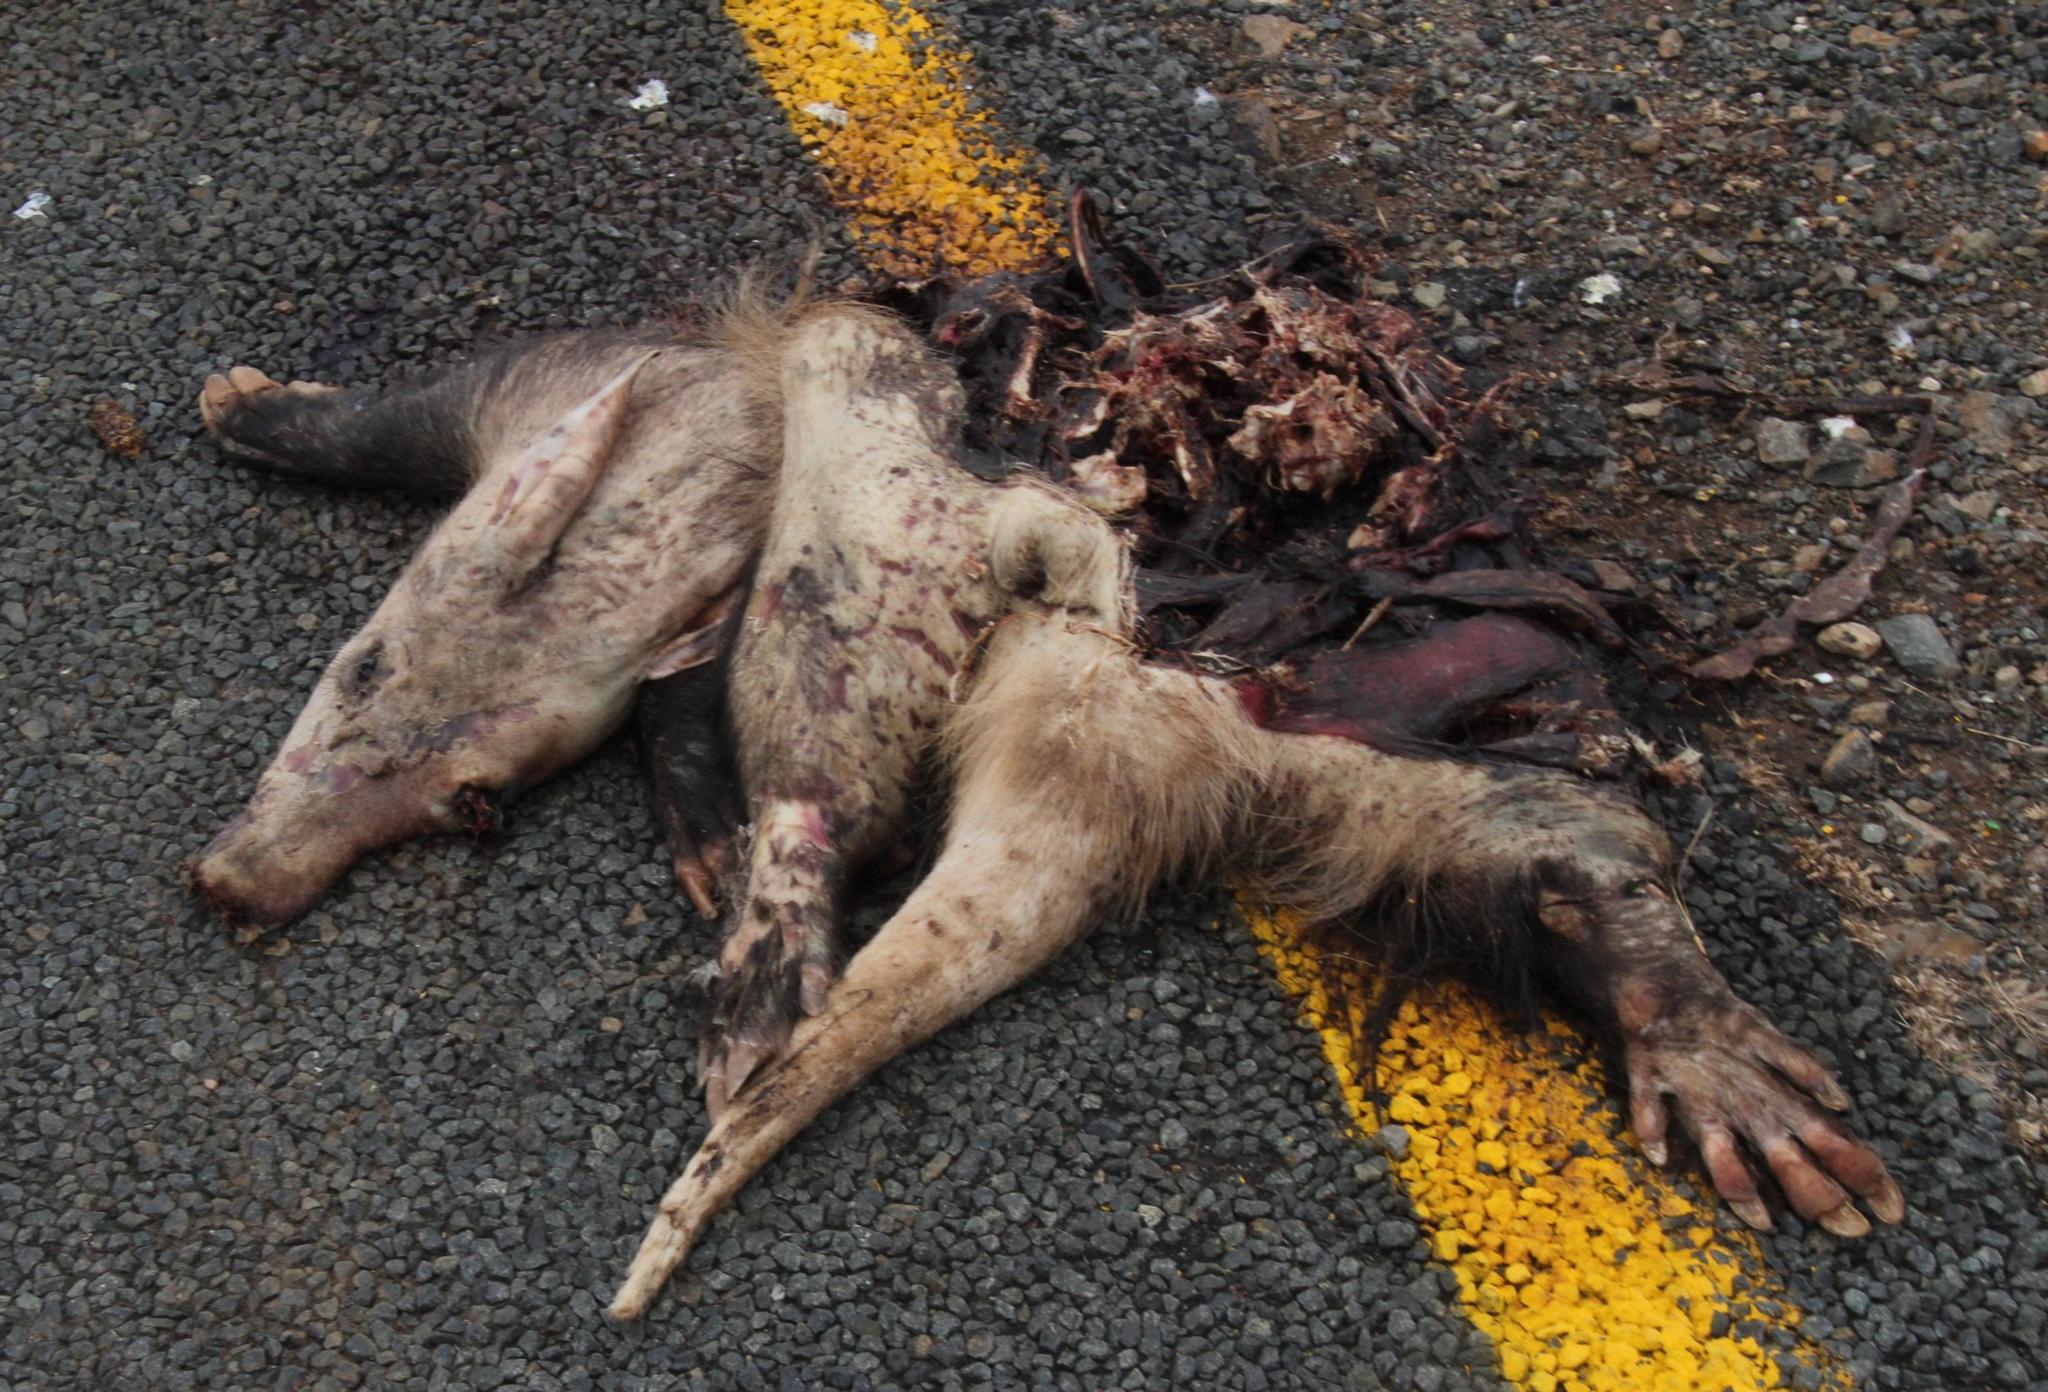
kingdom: Animalia
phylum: Chordata
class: Mammalia
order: Tubulidentata
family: Orycteropodidae
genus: Orycteropus
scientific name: Orycteropus afer
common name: Aardvark
